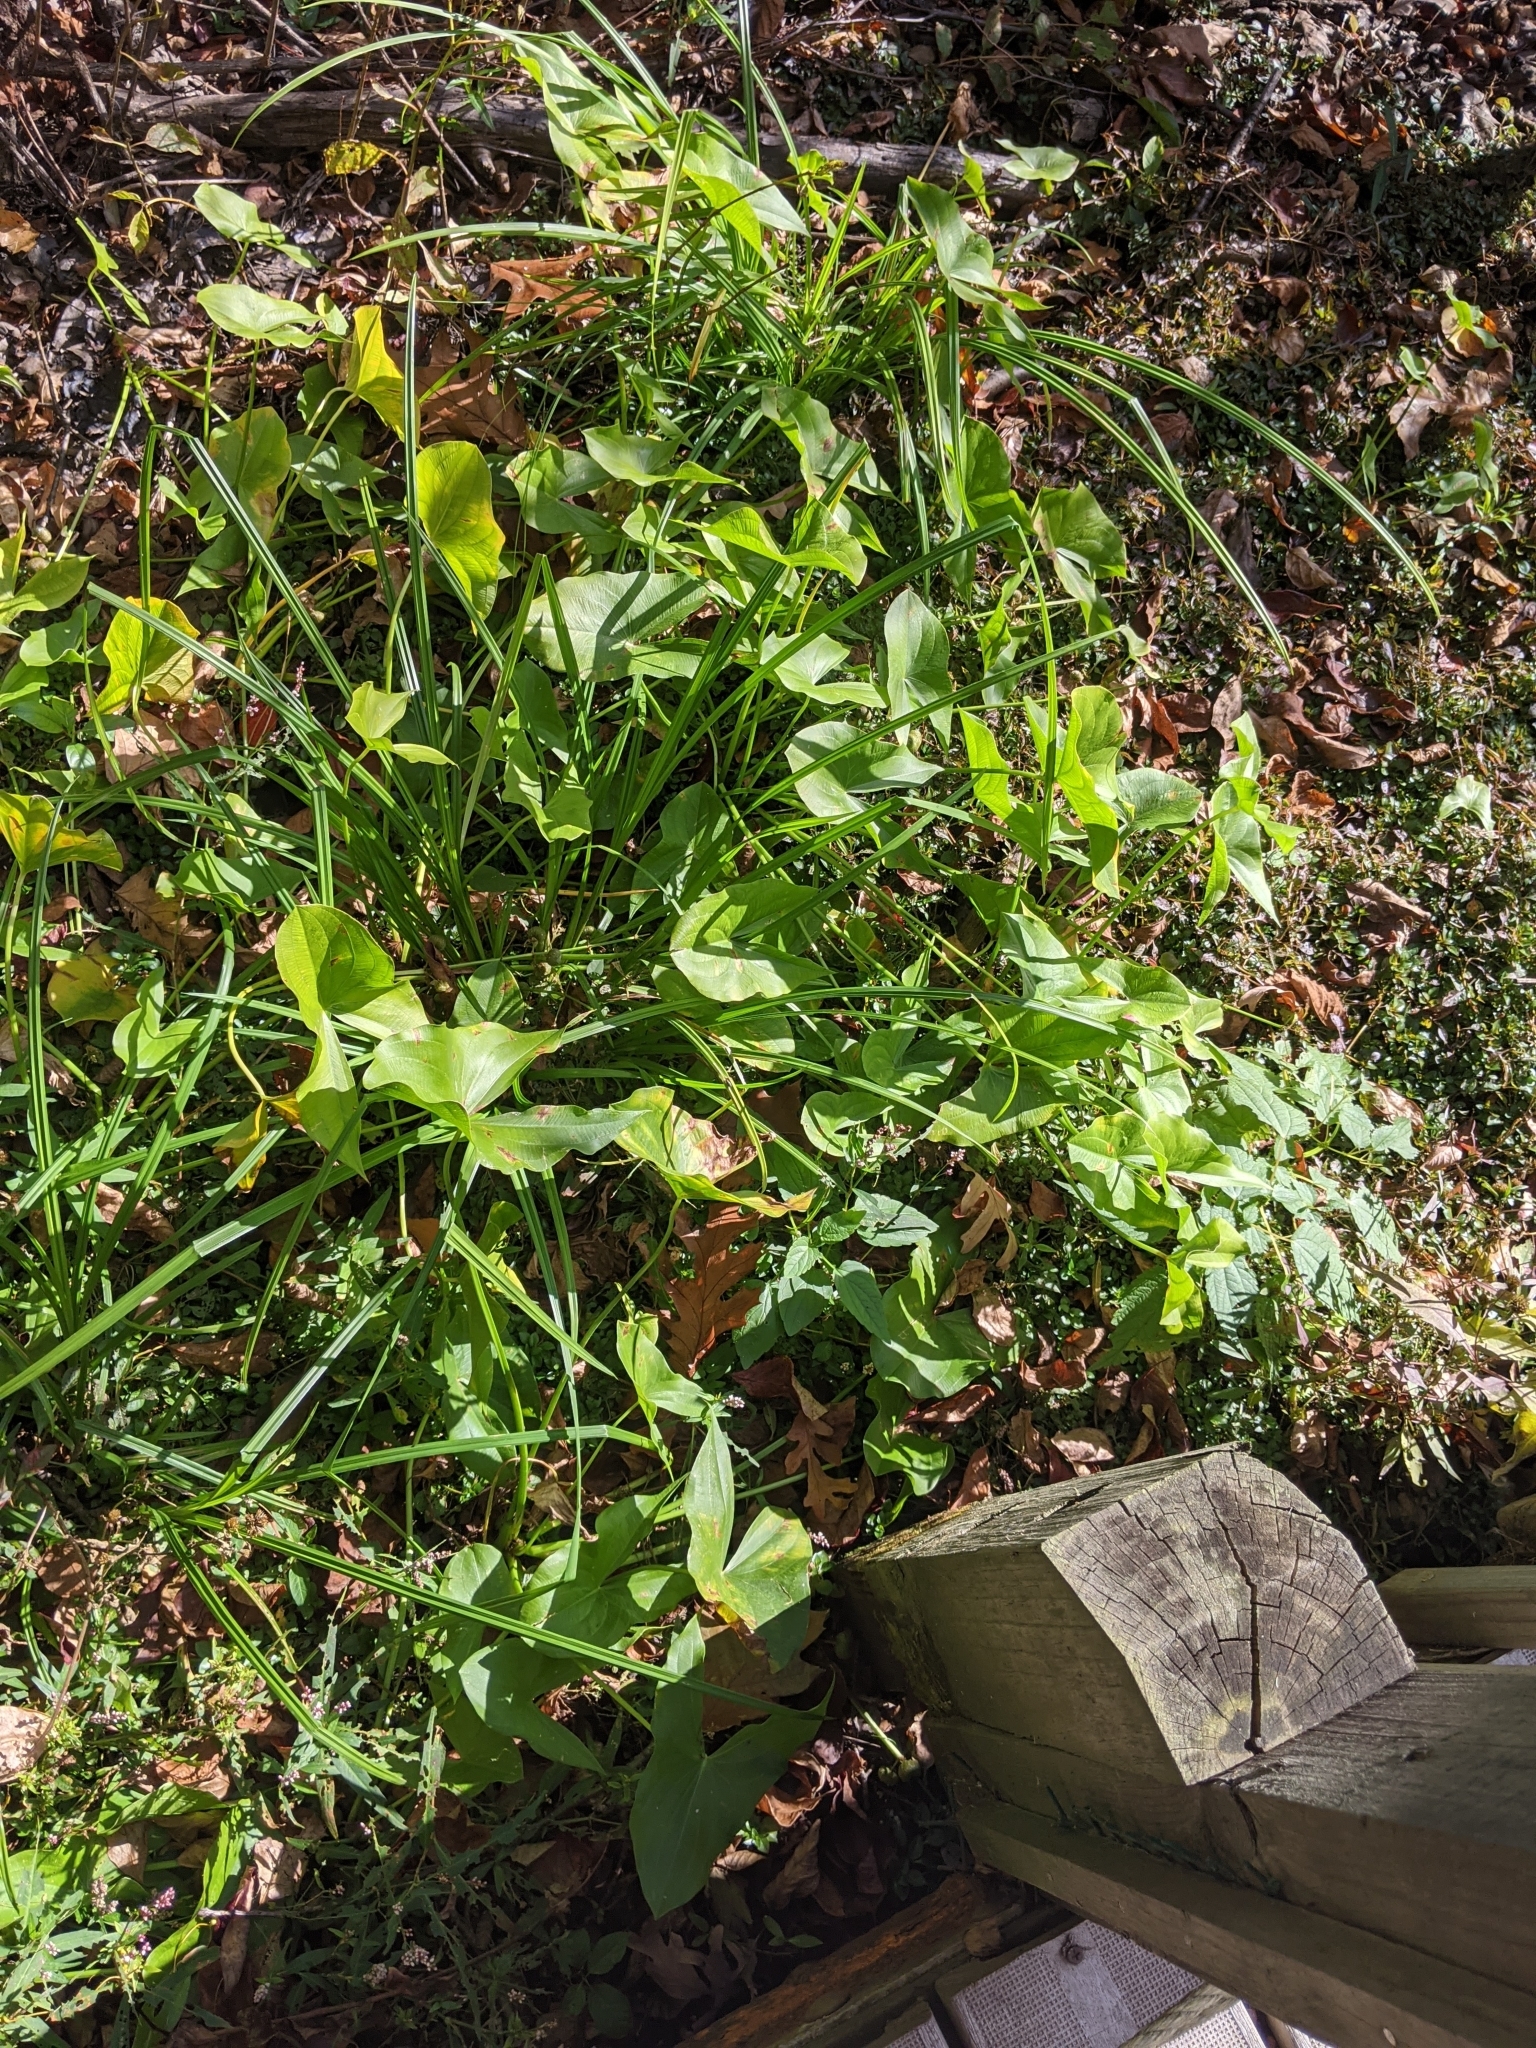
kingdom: Plantae
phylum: Tracheophyta
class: Liliopsida
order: Alismatales
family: Alismataceae
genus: Sagittaria
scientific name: Sagittaria latifolia
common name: Duck-potato
